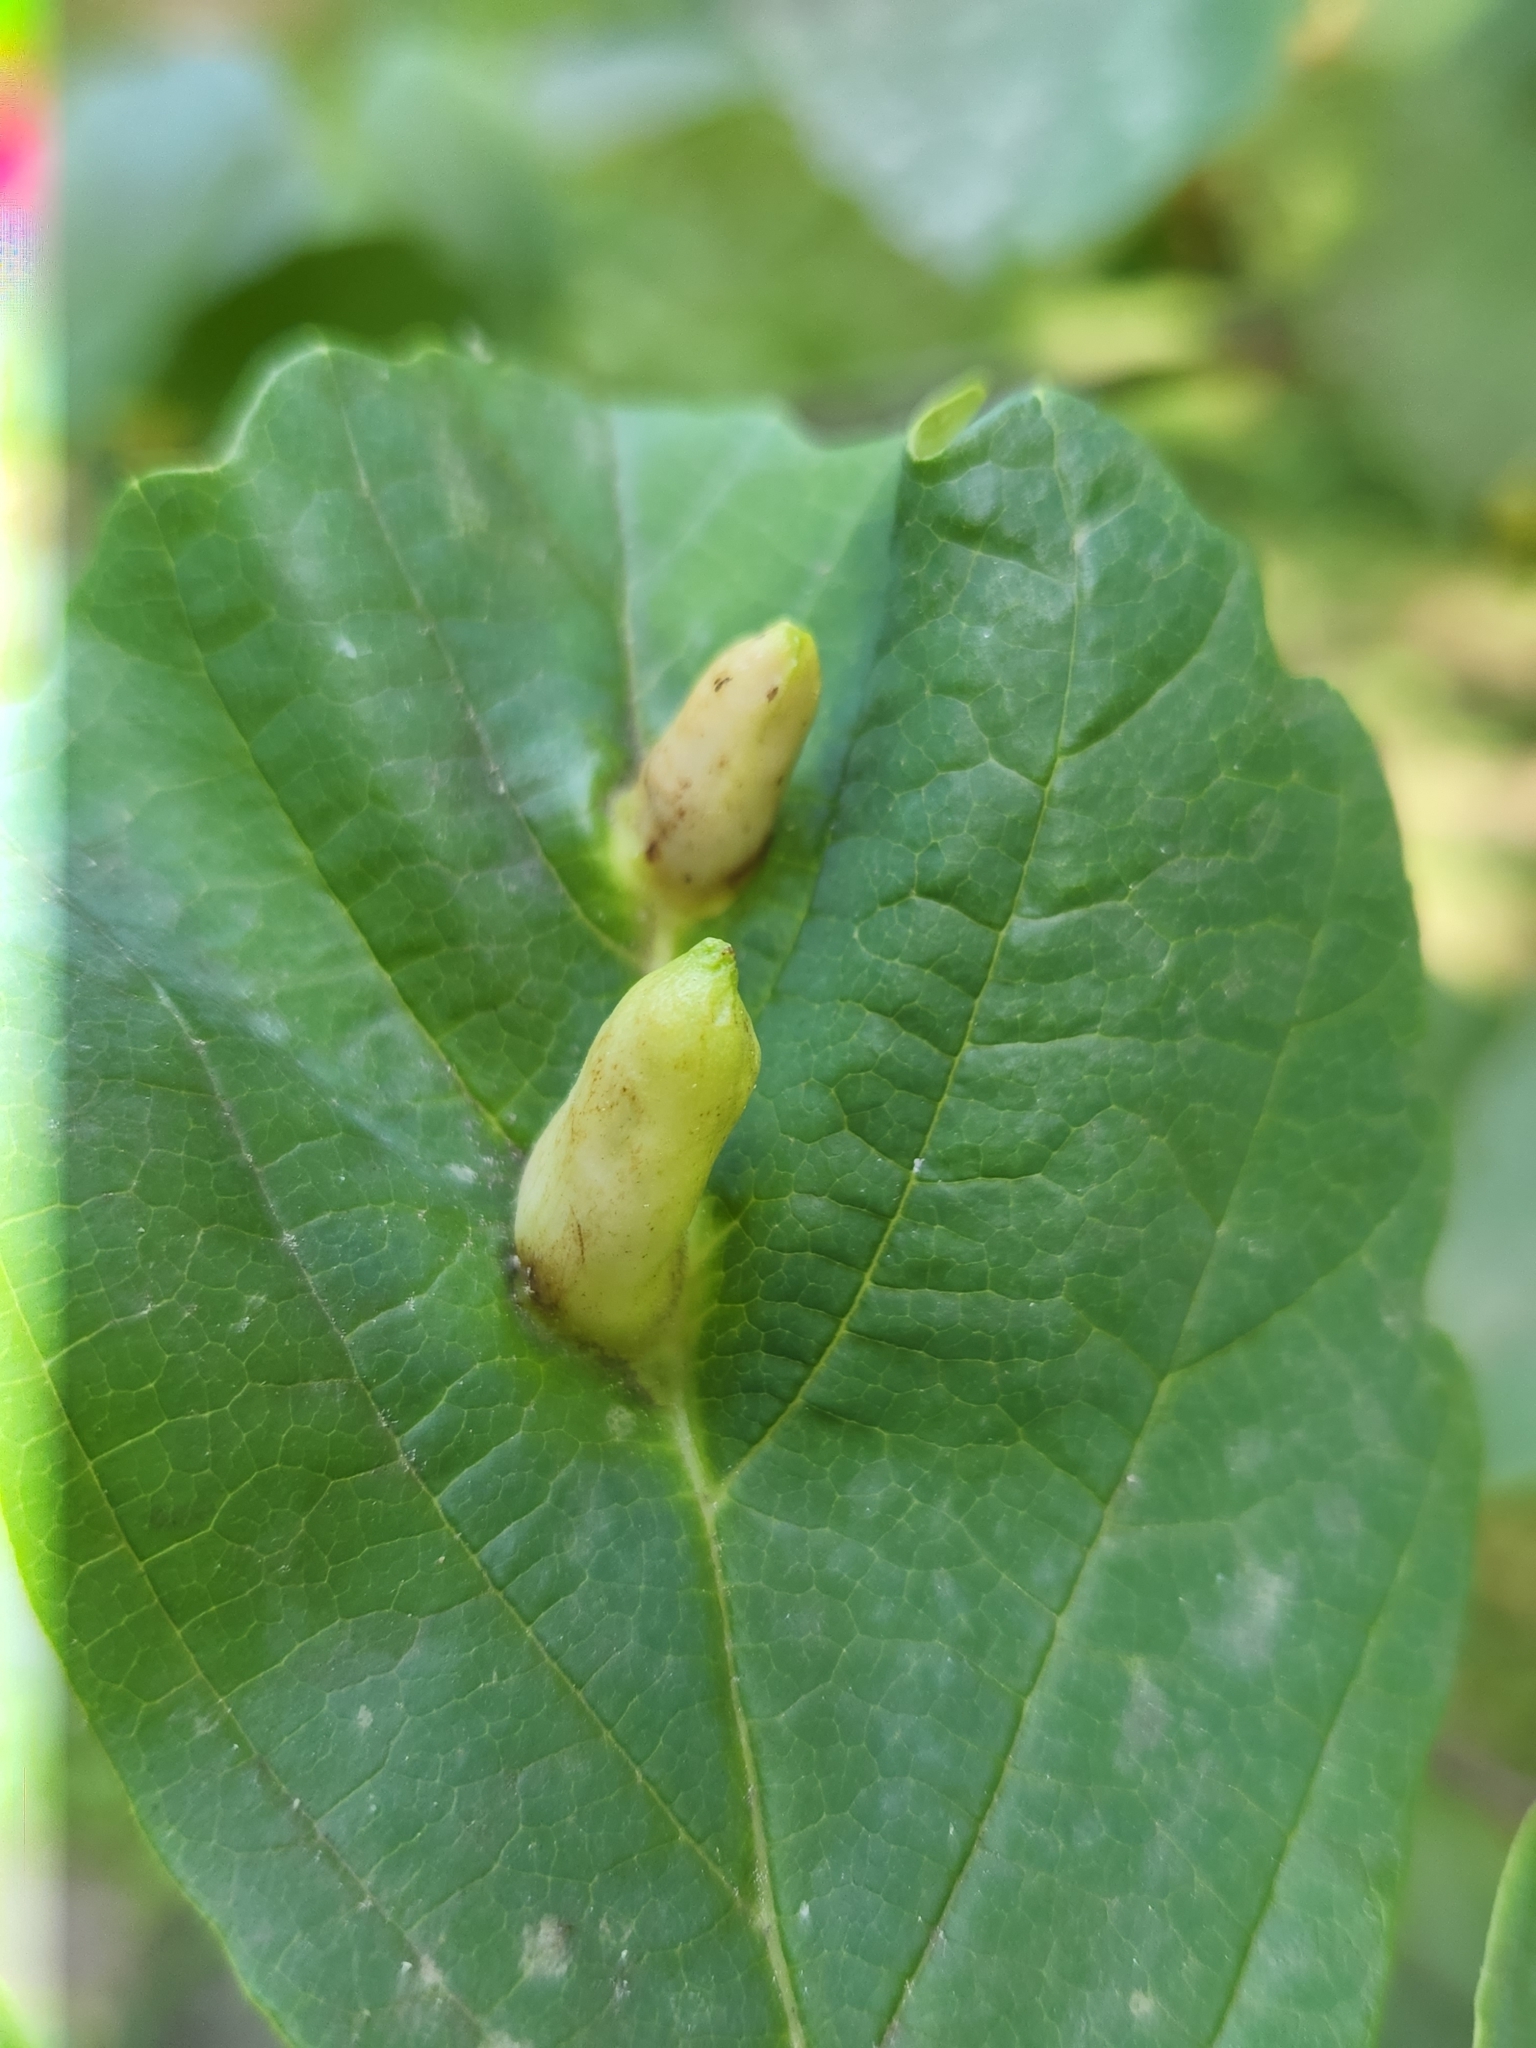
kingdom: Animalia
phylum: Arthropoda
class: Insecta
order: Hemiptera
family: Aphididae
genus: Hormaphis
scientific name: Hormaphis hamamelidis
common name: Witch-hazel cone gall aphid
